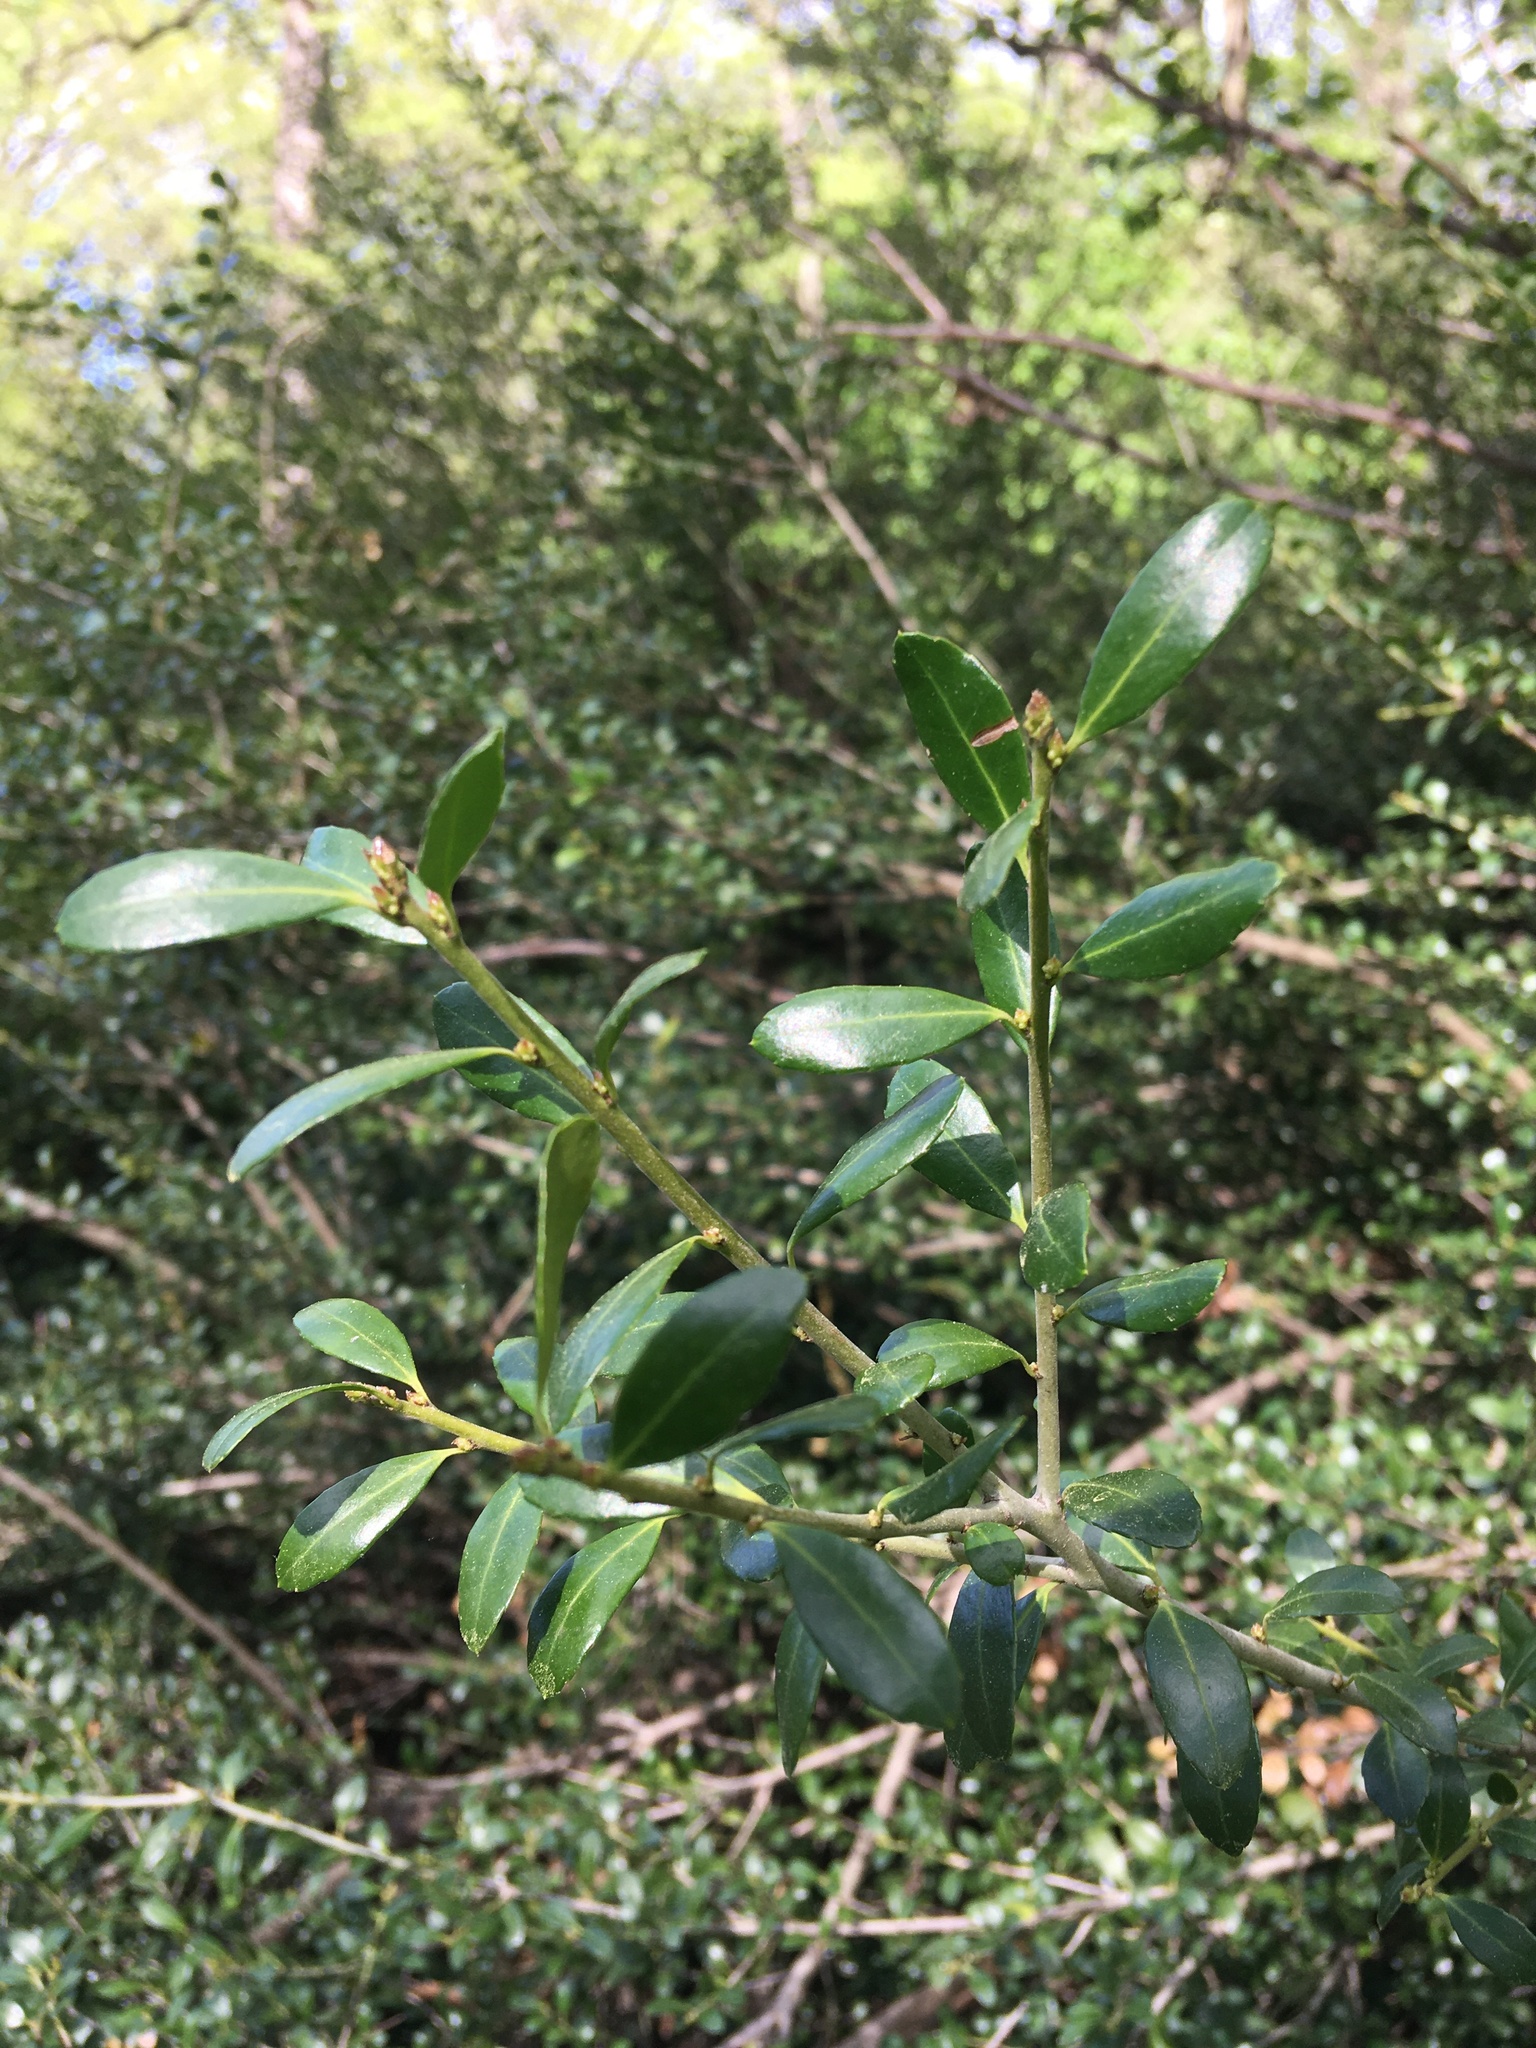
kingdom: Plantae
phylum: Tracheophyta
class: Magnoliopsida
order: Aquifoliales
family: Aquifoliaceae
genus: Ilex
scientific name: Ilex crenata
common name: Japanese holly
